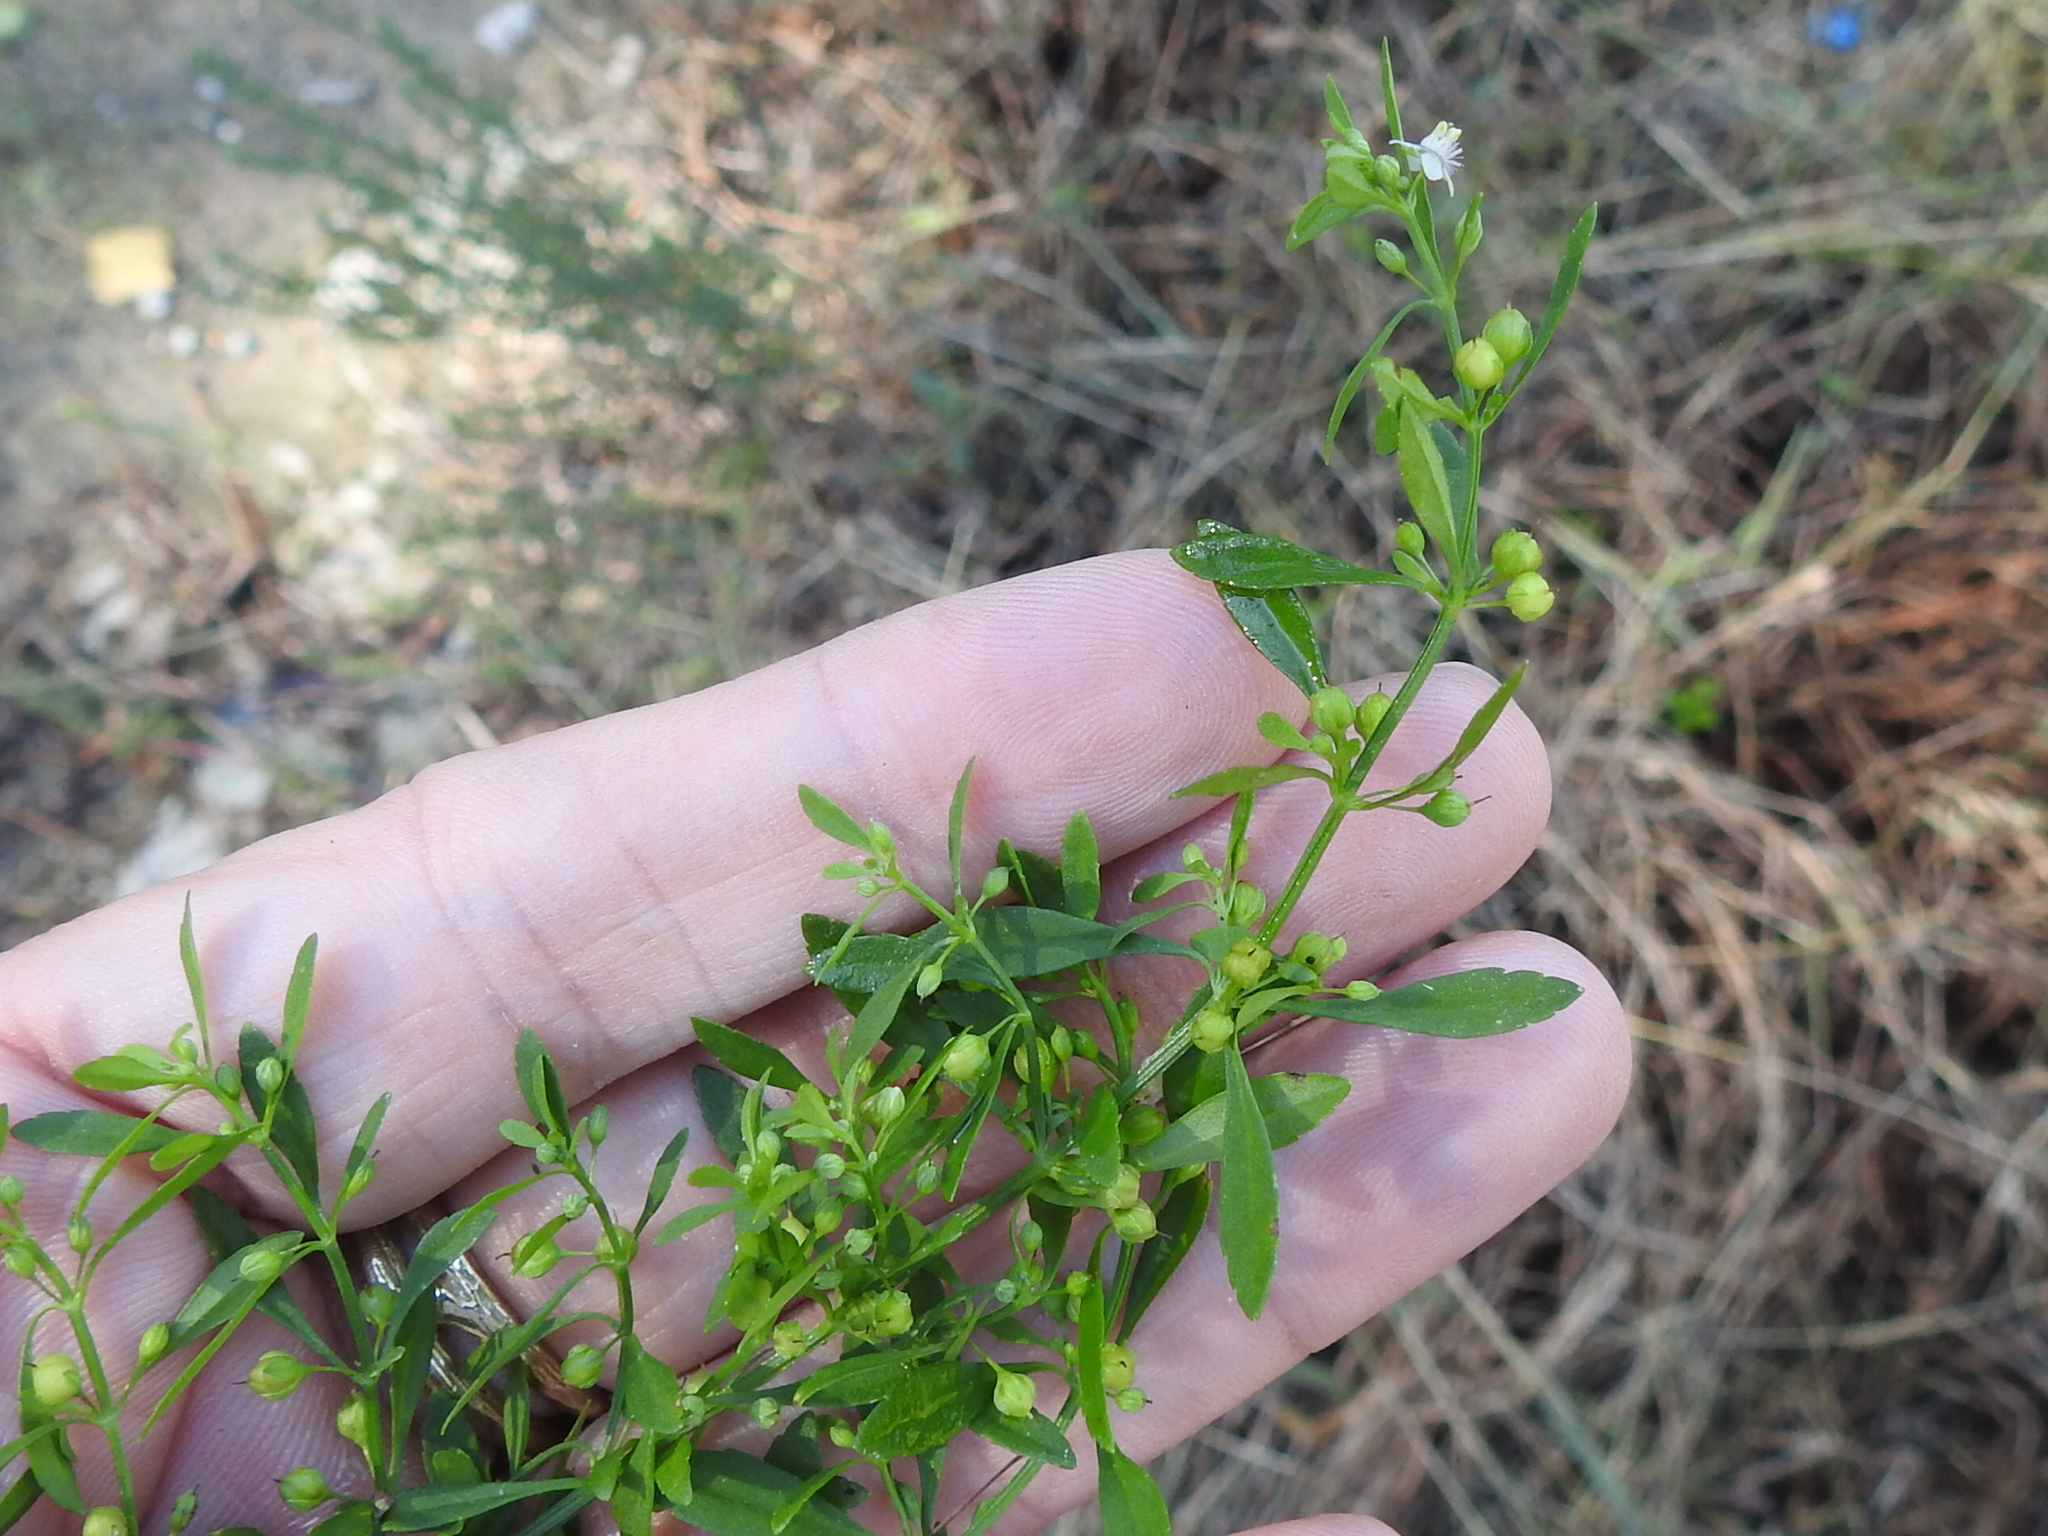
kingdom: Plantae
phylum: Tracheophyta
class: Magnoliopsida
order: Lamiales
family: Plantaginaceae
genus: Scoparia
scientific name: Scoparia dulcis
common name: Scoparia-weed
